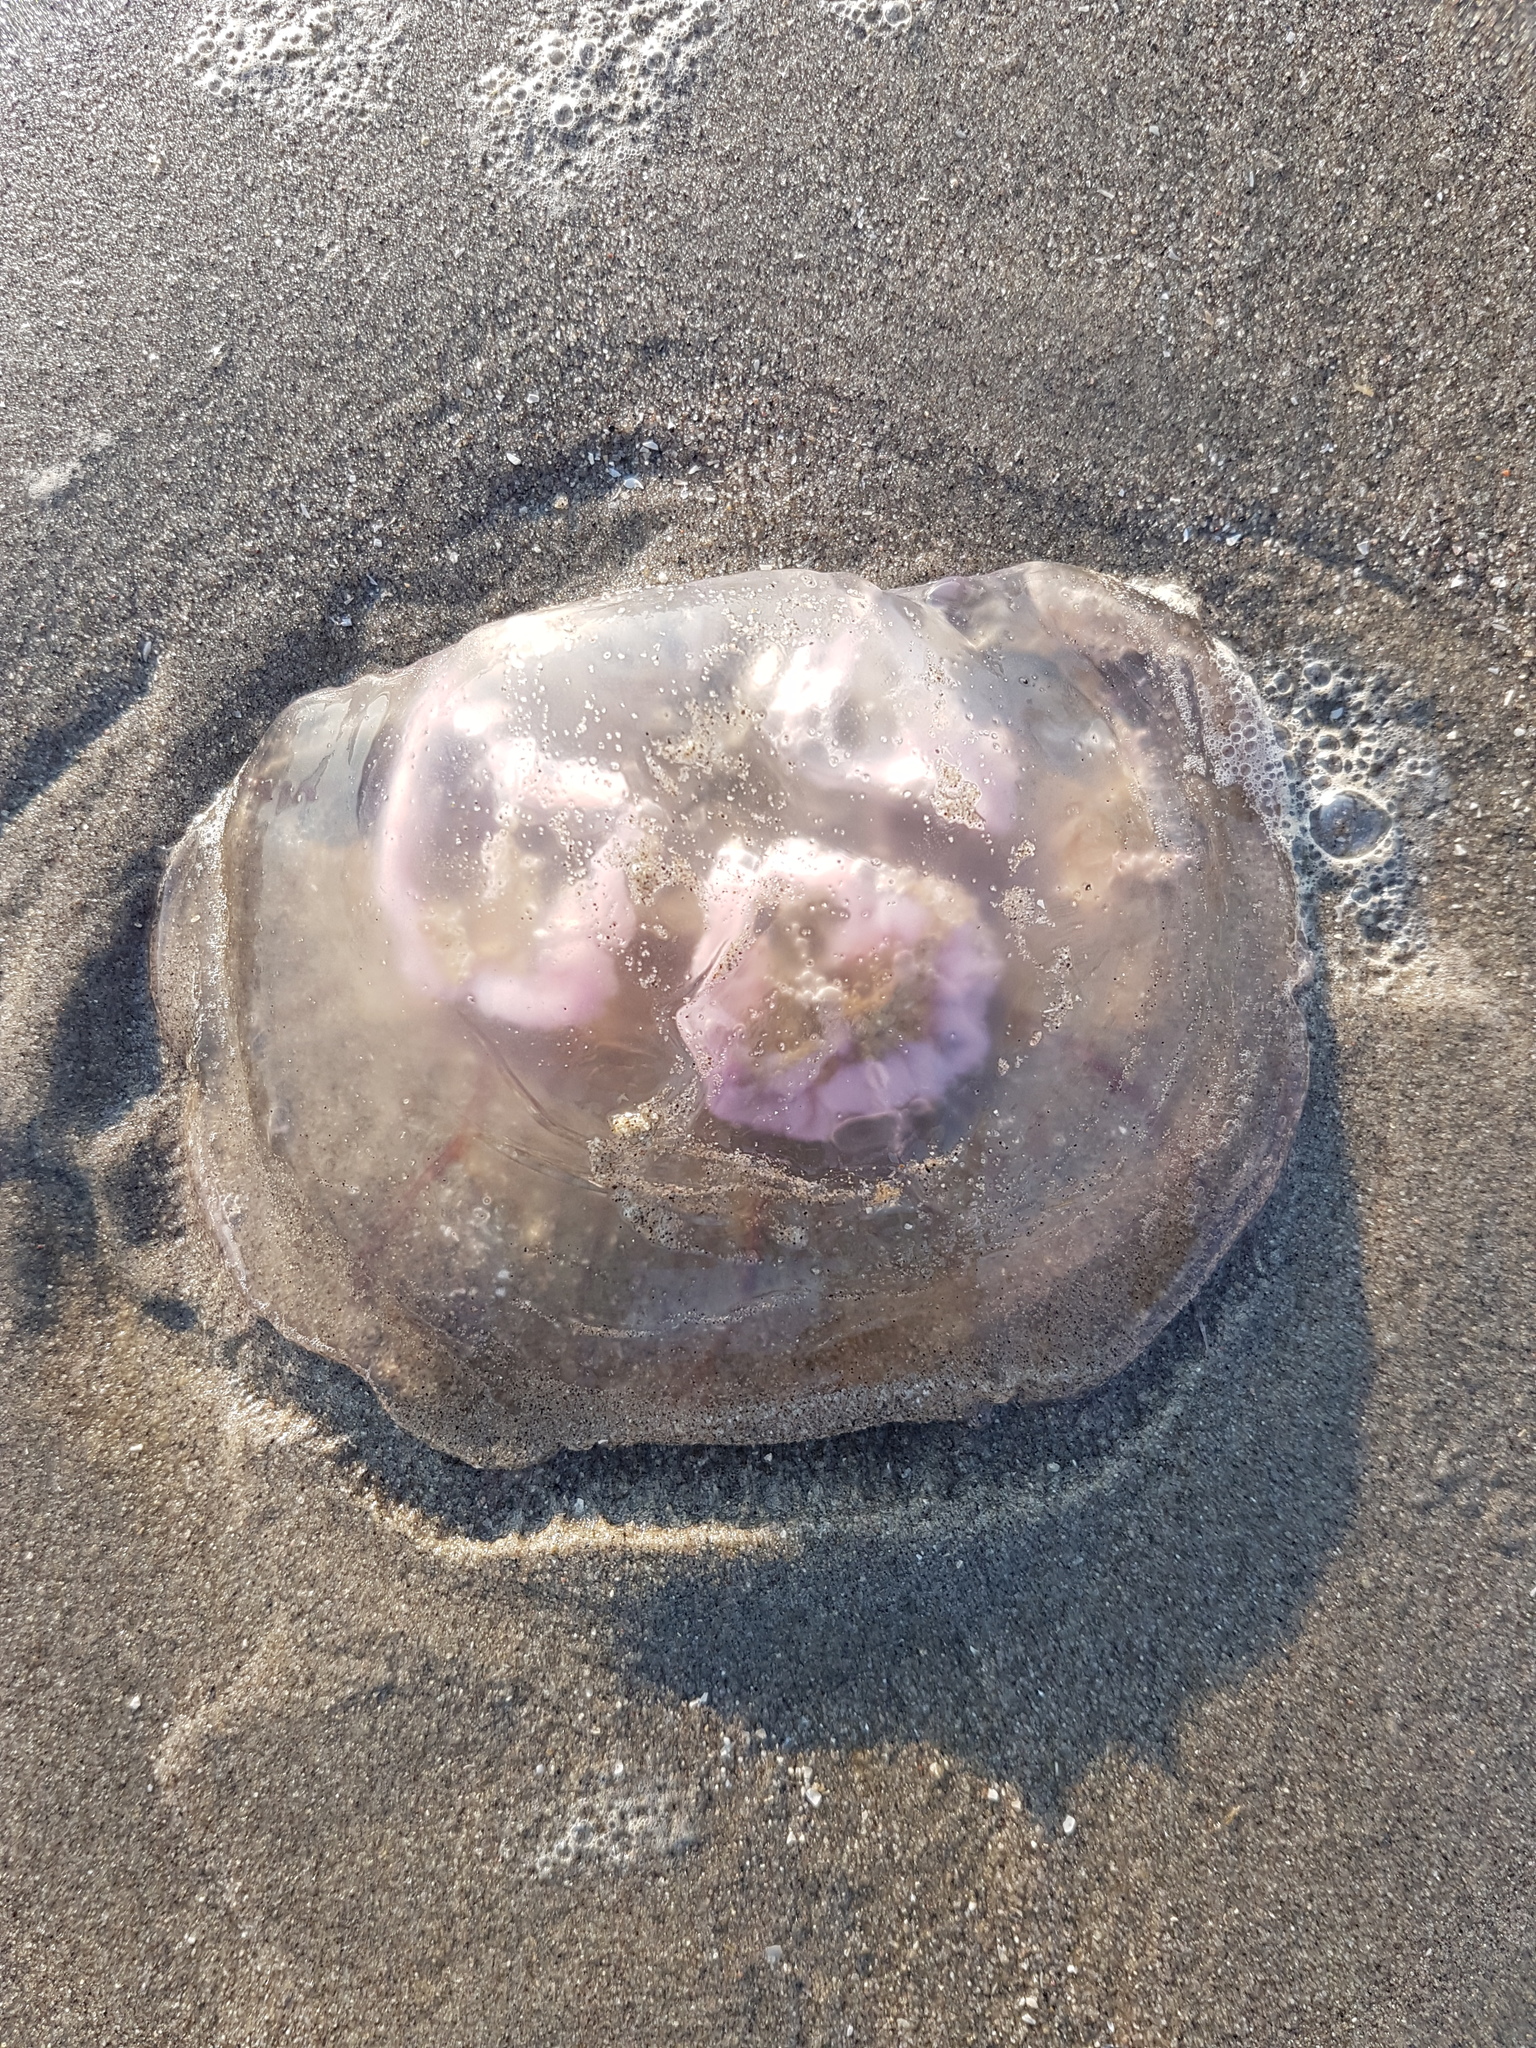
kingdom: Animalia
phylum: Cnidaria
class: Scyphozoa
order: Semaeostomeae
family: Ulmaridae
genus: Aurelia
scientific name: Aurelia aurita
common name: Moon jellyfish
